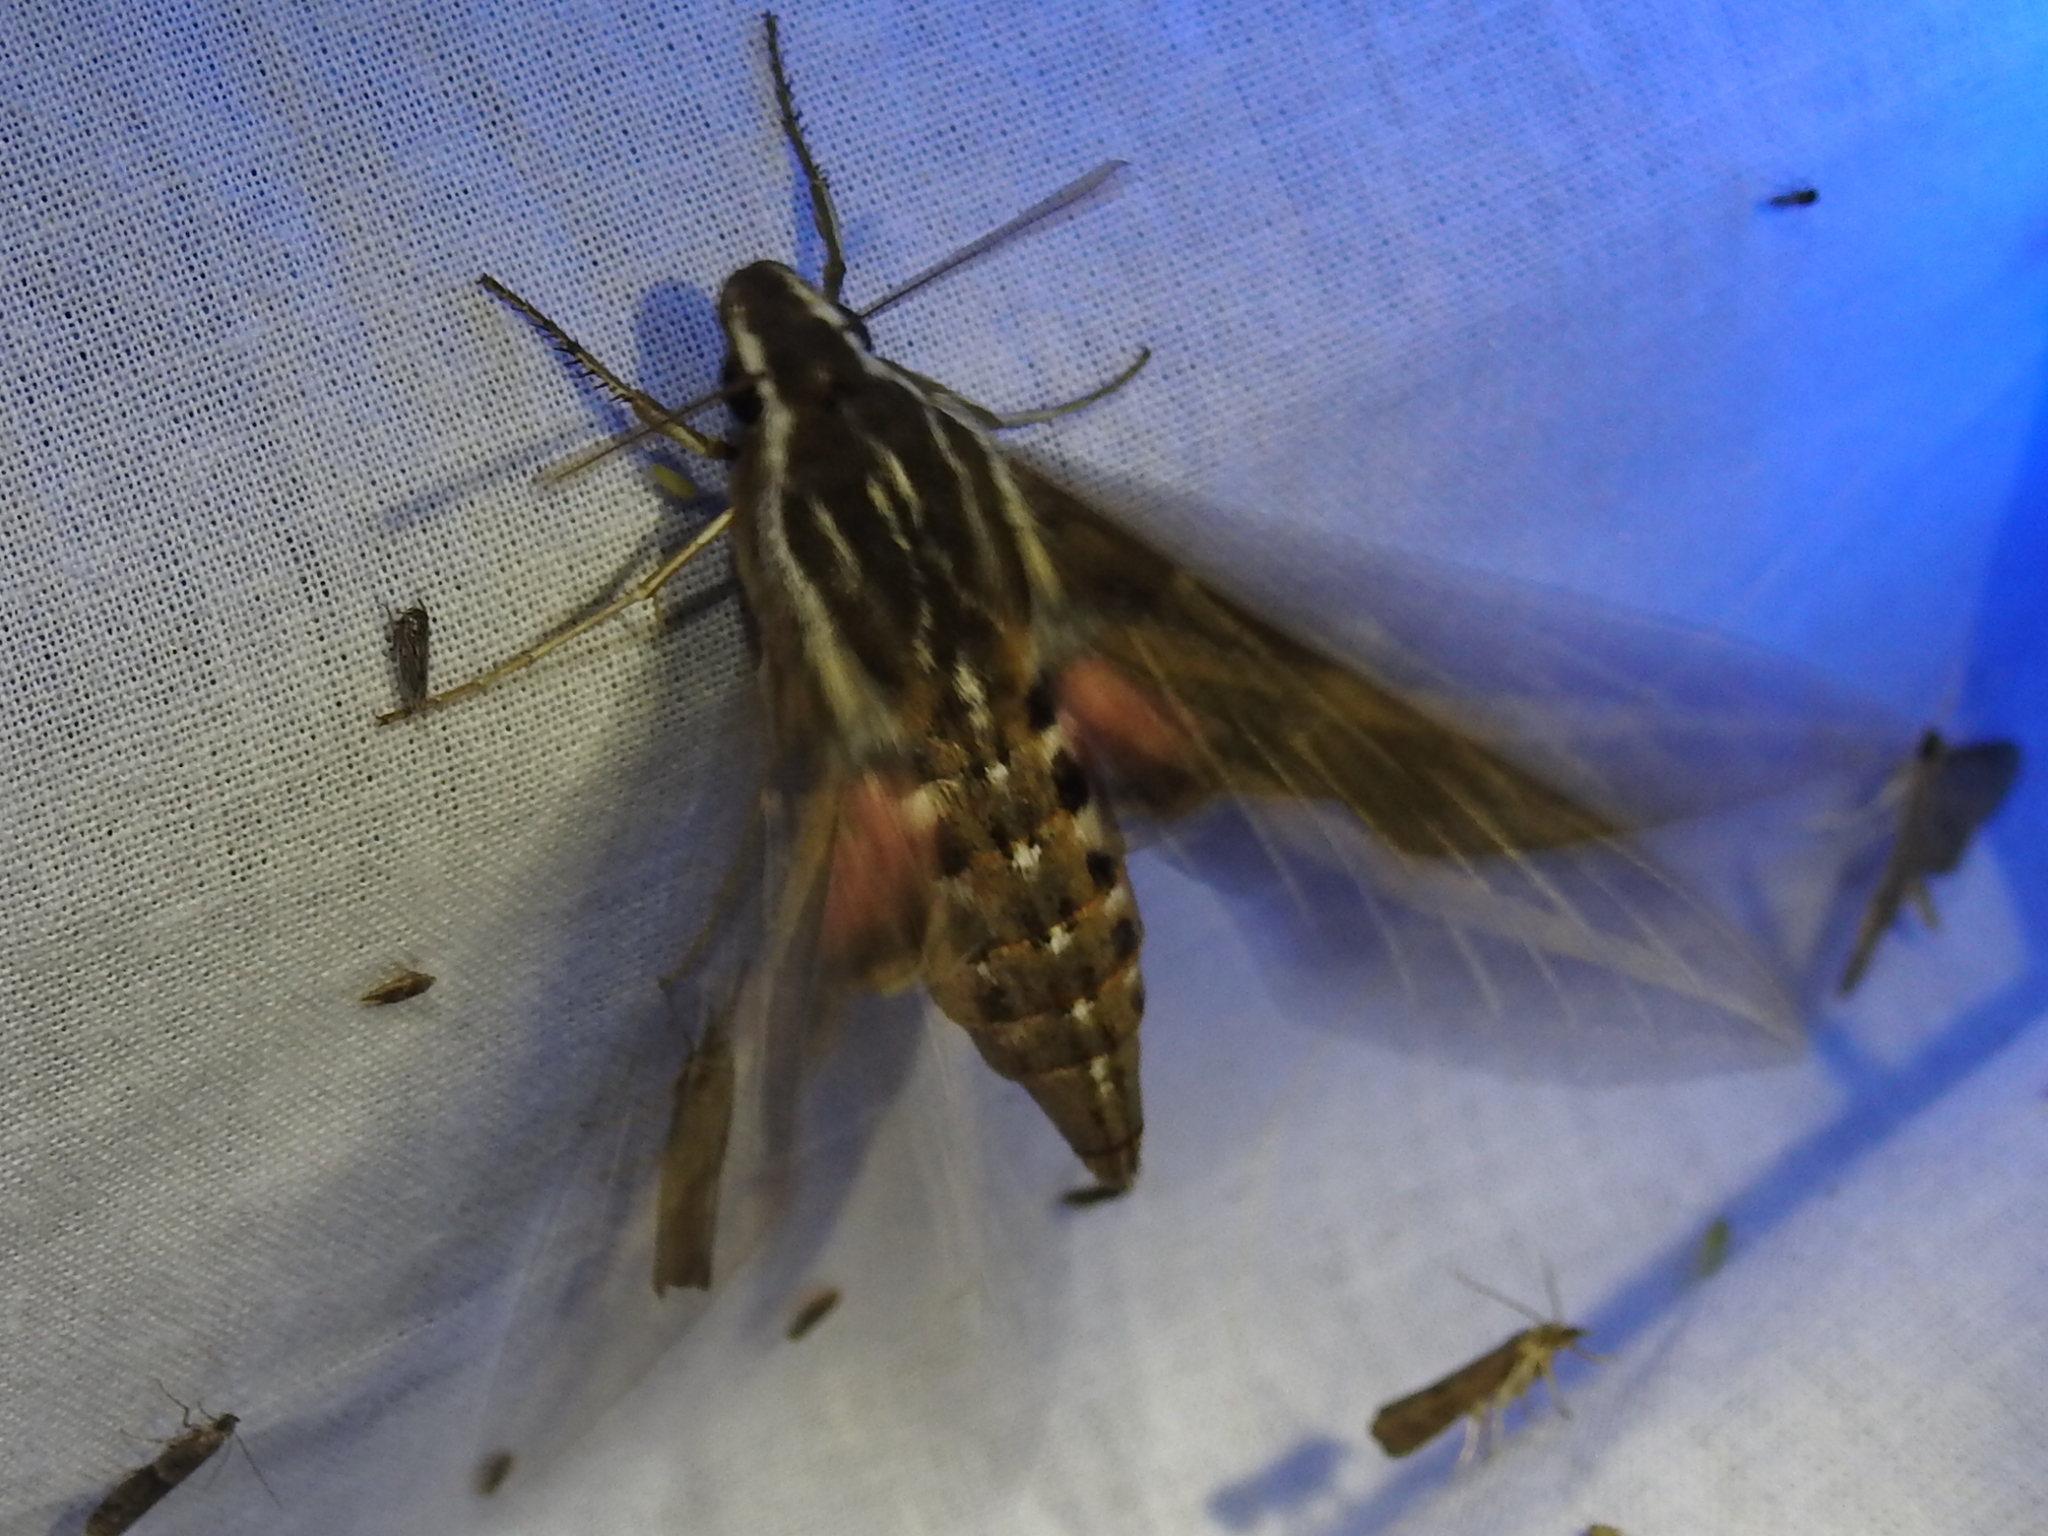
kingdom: Animalia
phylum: Arthropoda
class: Insecta
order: Lepidoptera
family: Sphingidae
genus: Hyles
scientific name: Hyles lineata
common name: White-lined sphinx
